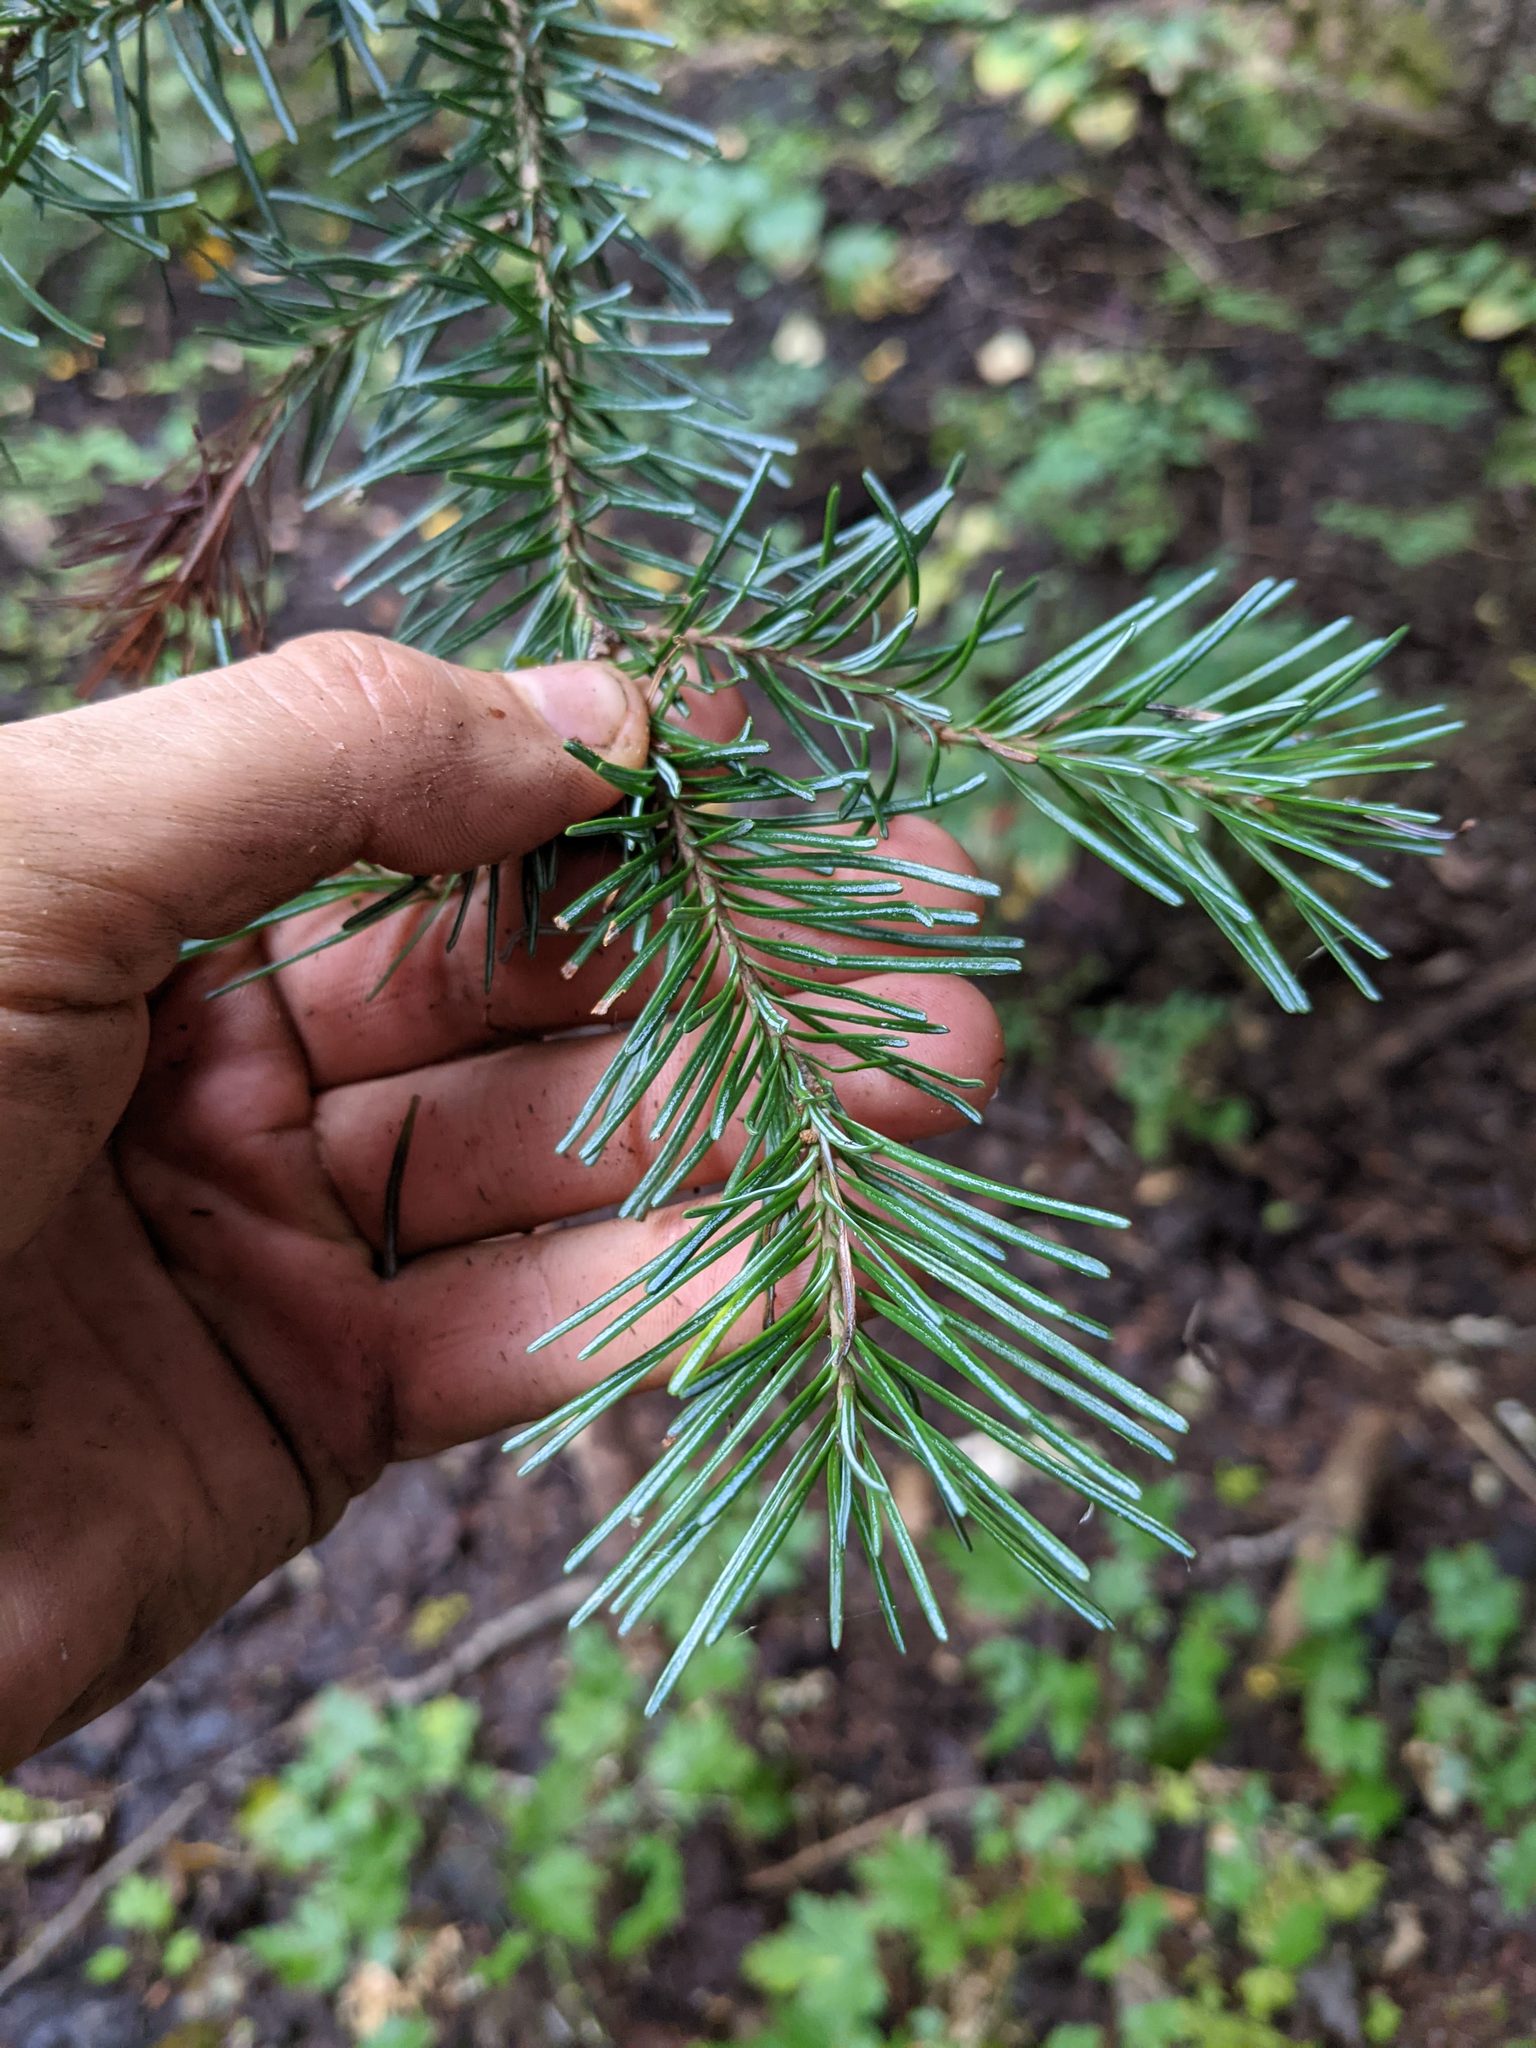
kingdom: Plantae
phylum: Tracheophyta
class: Pinopsida
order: Pinales
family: Pinaceae
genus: Abies
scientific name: Abies lasiocarpa
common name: Subalpine fir
